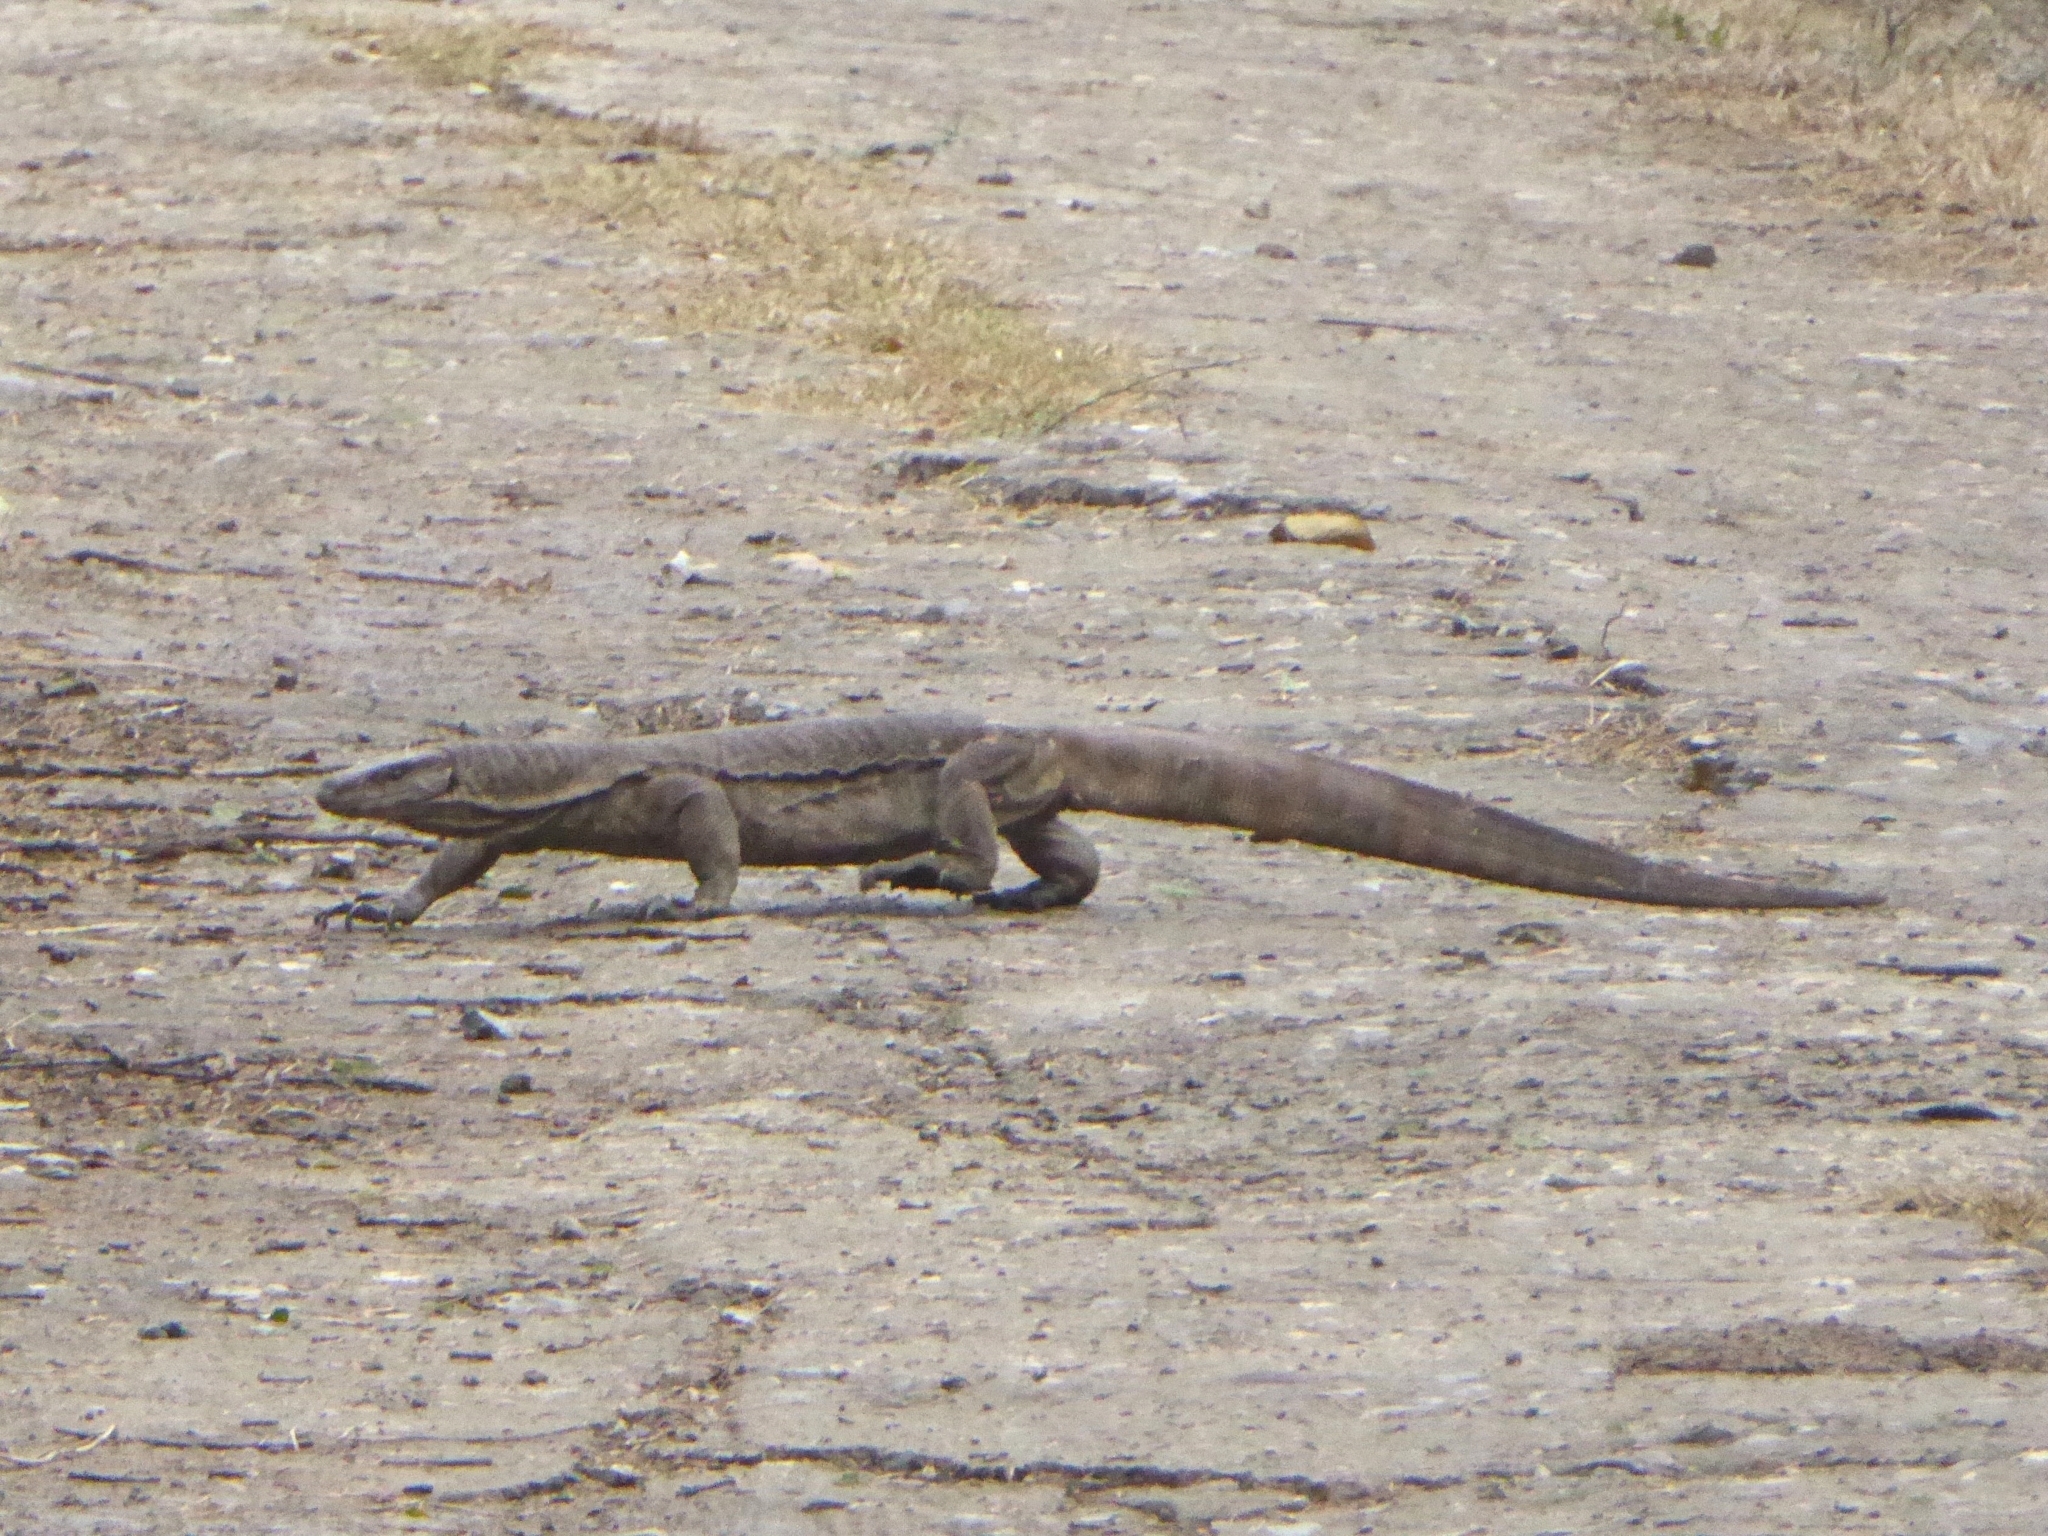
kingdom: Animalia
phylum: Chordata
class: Squamata
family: Varanidae
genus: Varanus
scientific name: Varanus bengalensis
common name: Bengal monitor
